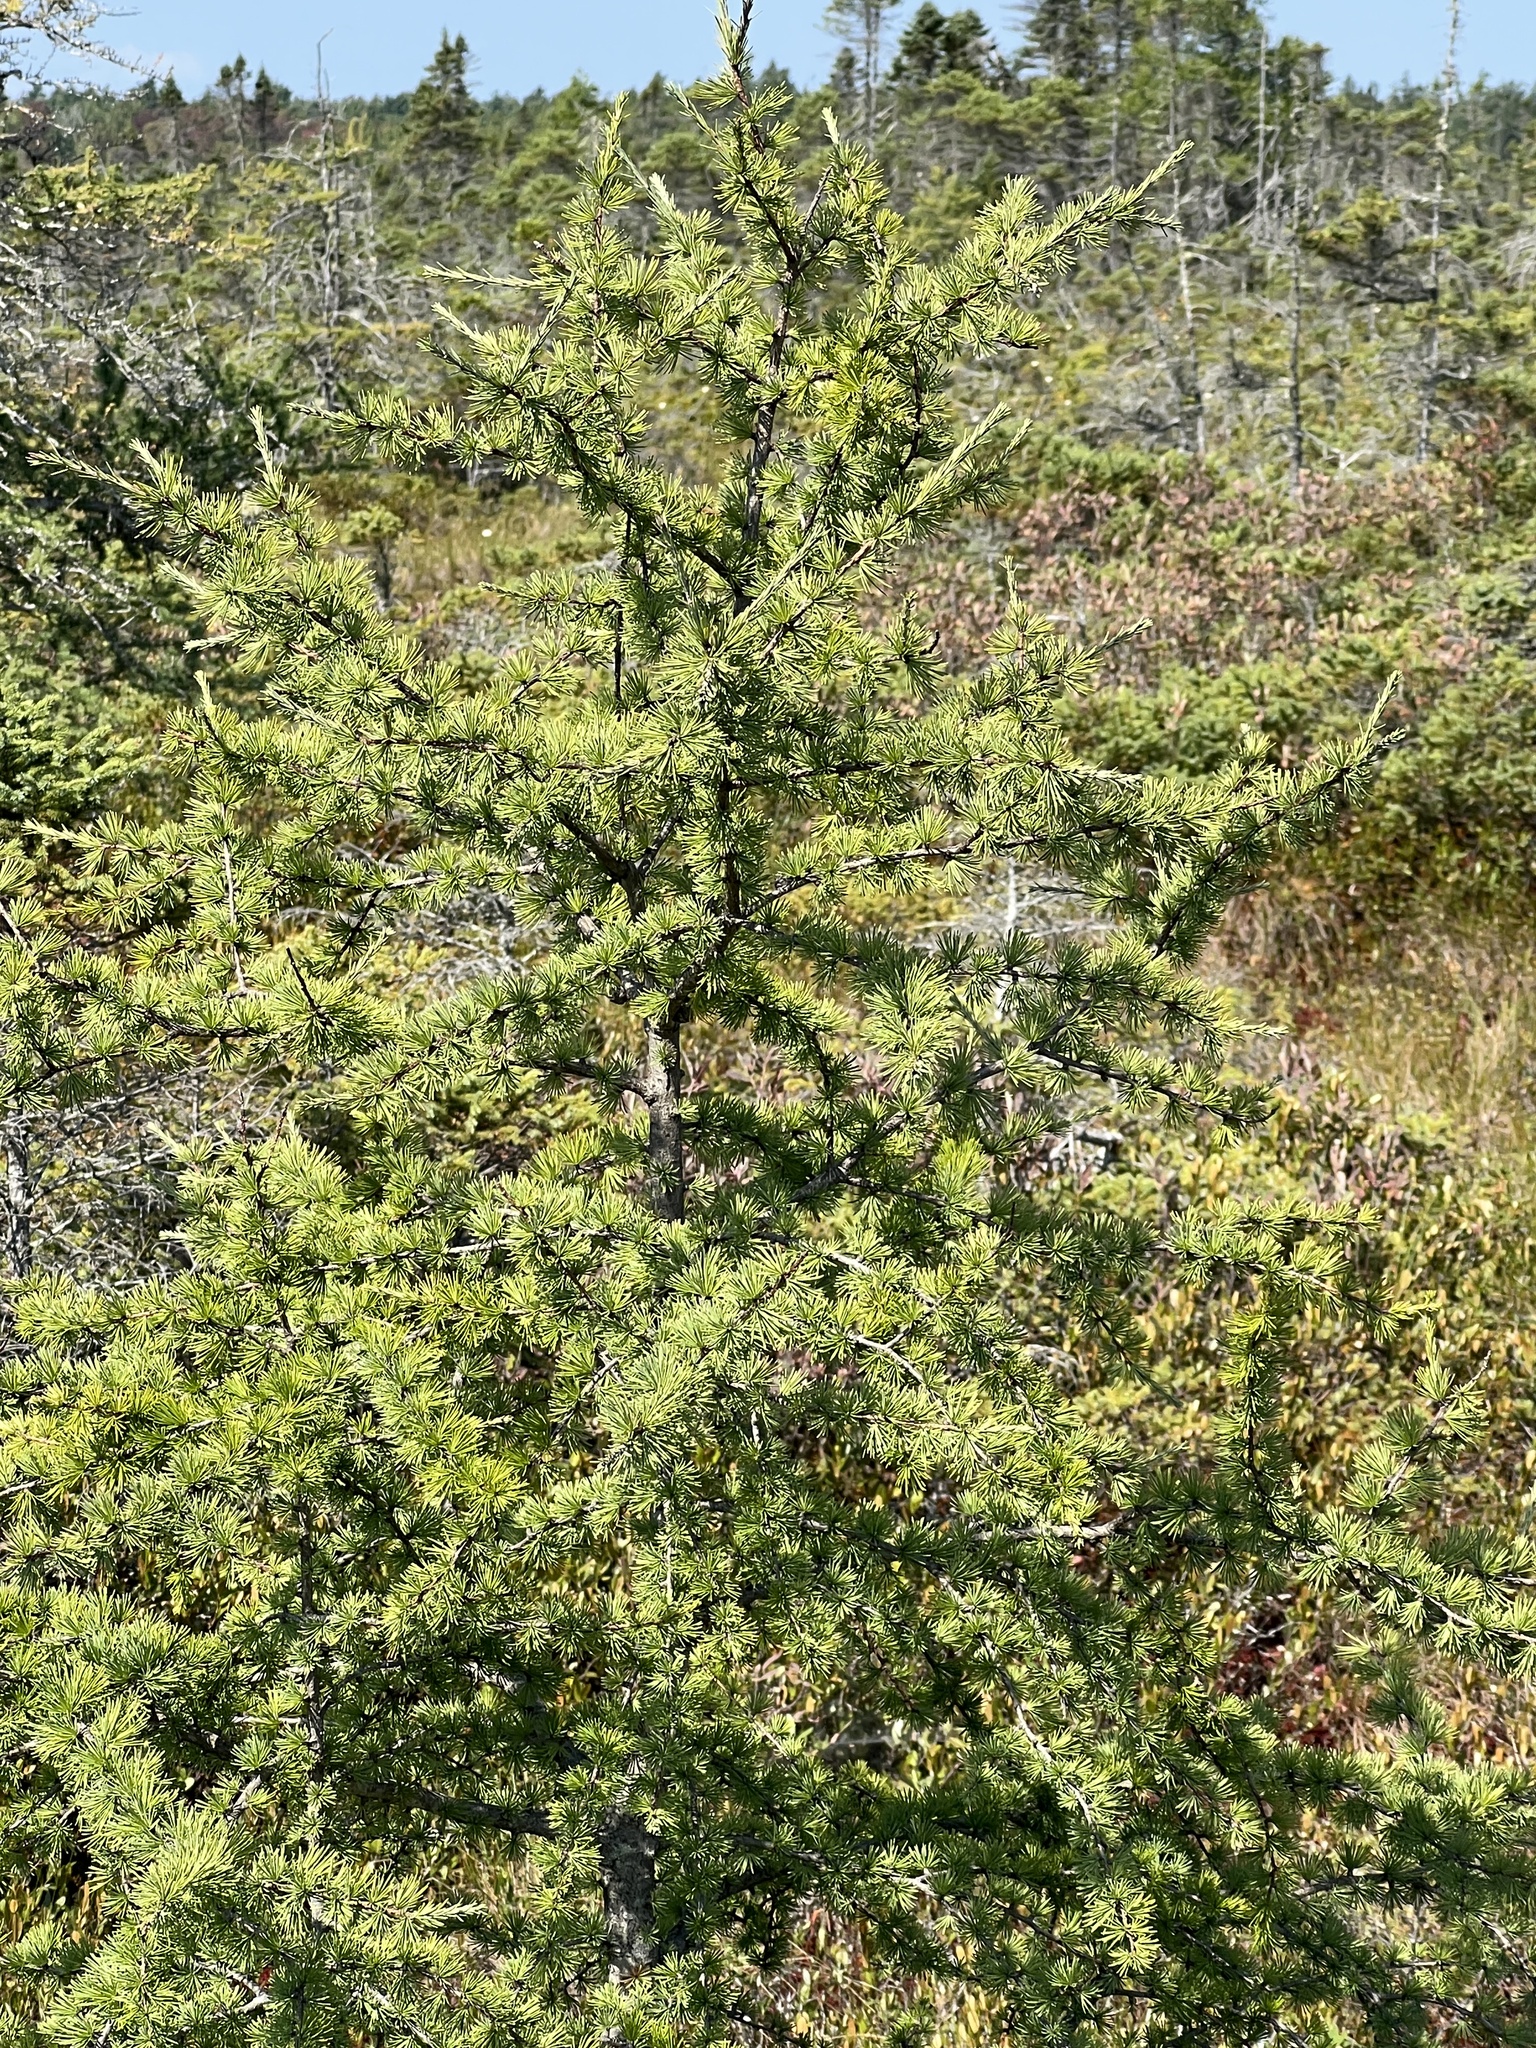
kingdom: Plantae
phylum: Tracheophyta
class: Pinopsida
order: Pinales
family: Pinaceae
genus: Larix
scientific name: Larix laricina
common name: American larch
